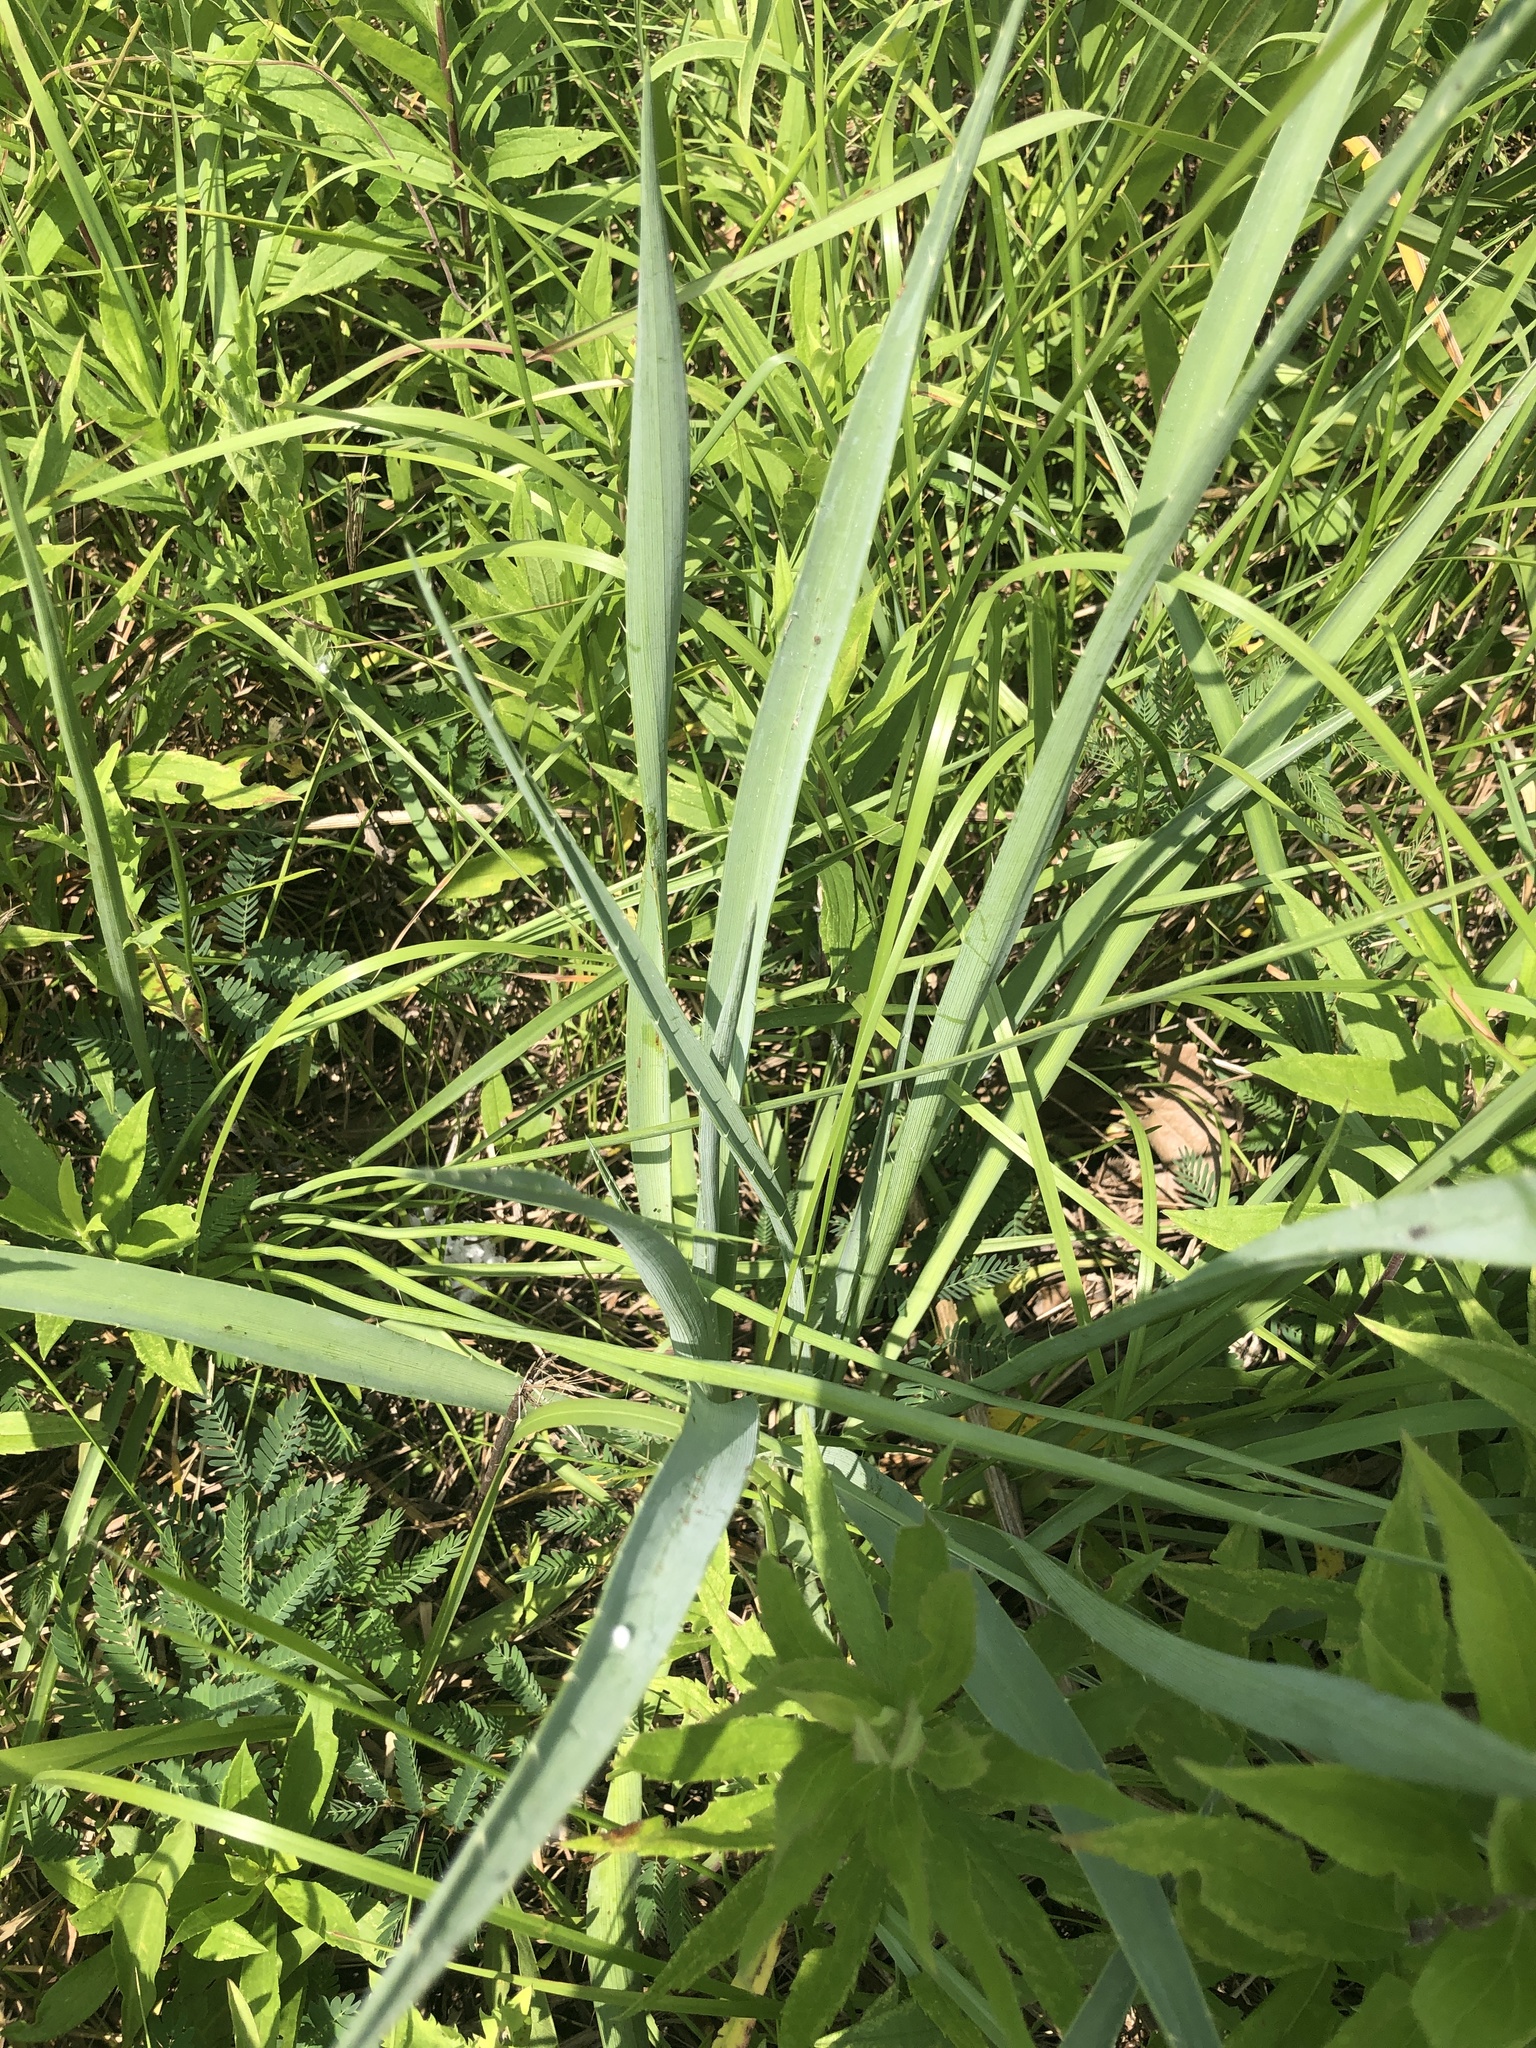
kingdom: Plantae
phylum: Tracheophyta
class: Magnoliopsida
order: Apiales
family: Apiaceae
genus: Eryngium
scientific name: Eryngium yuccifolium
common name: Button eryngo
